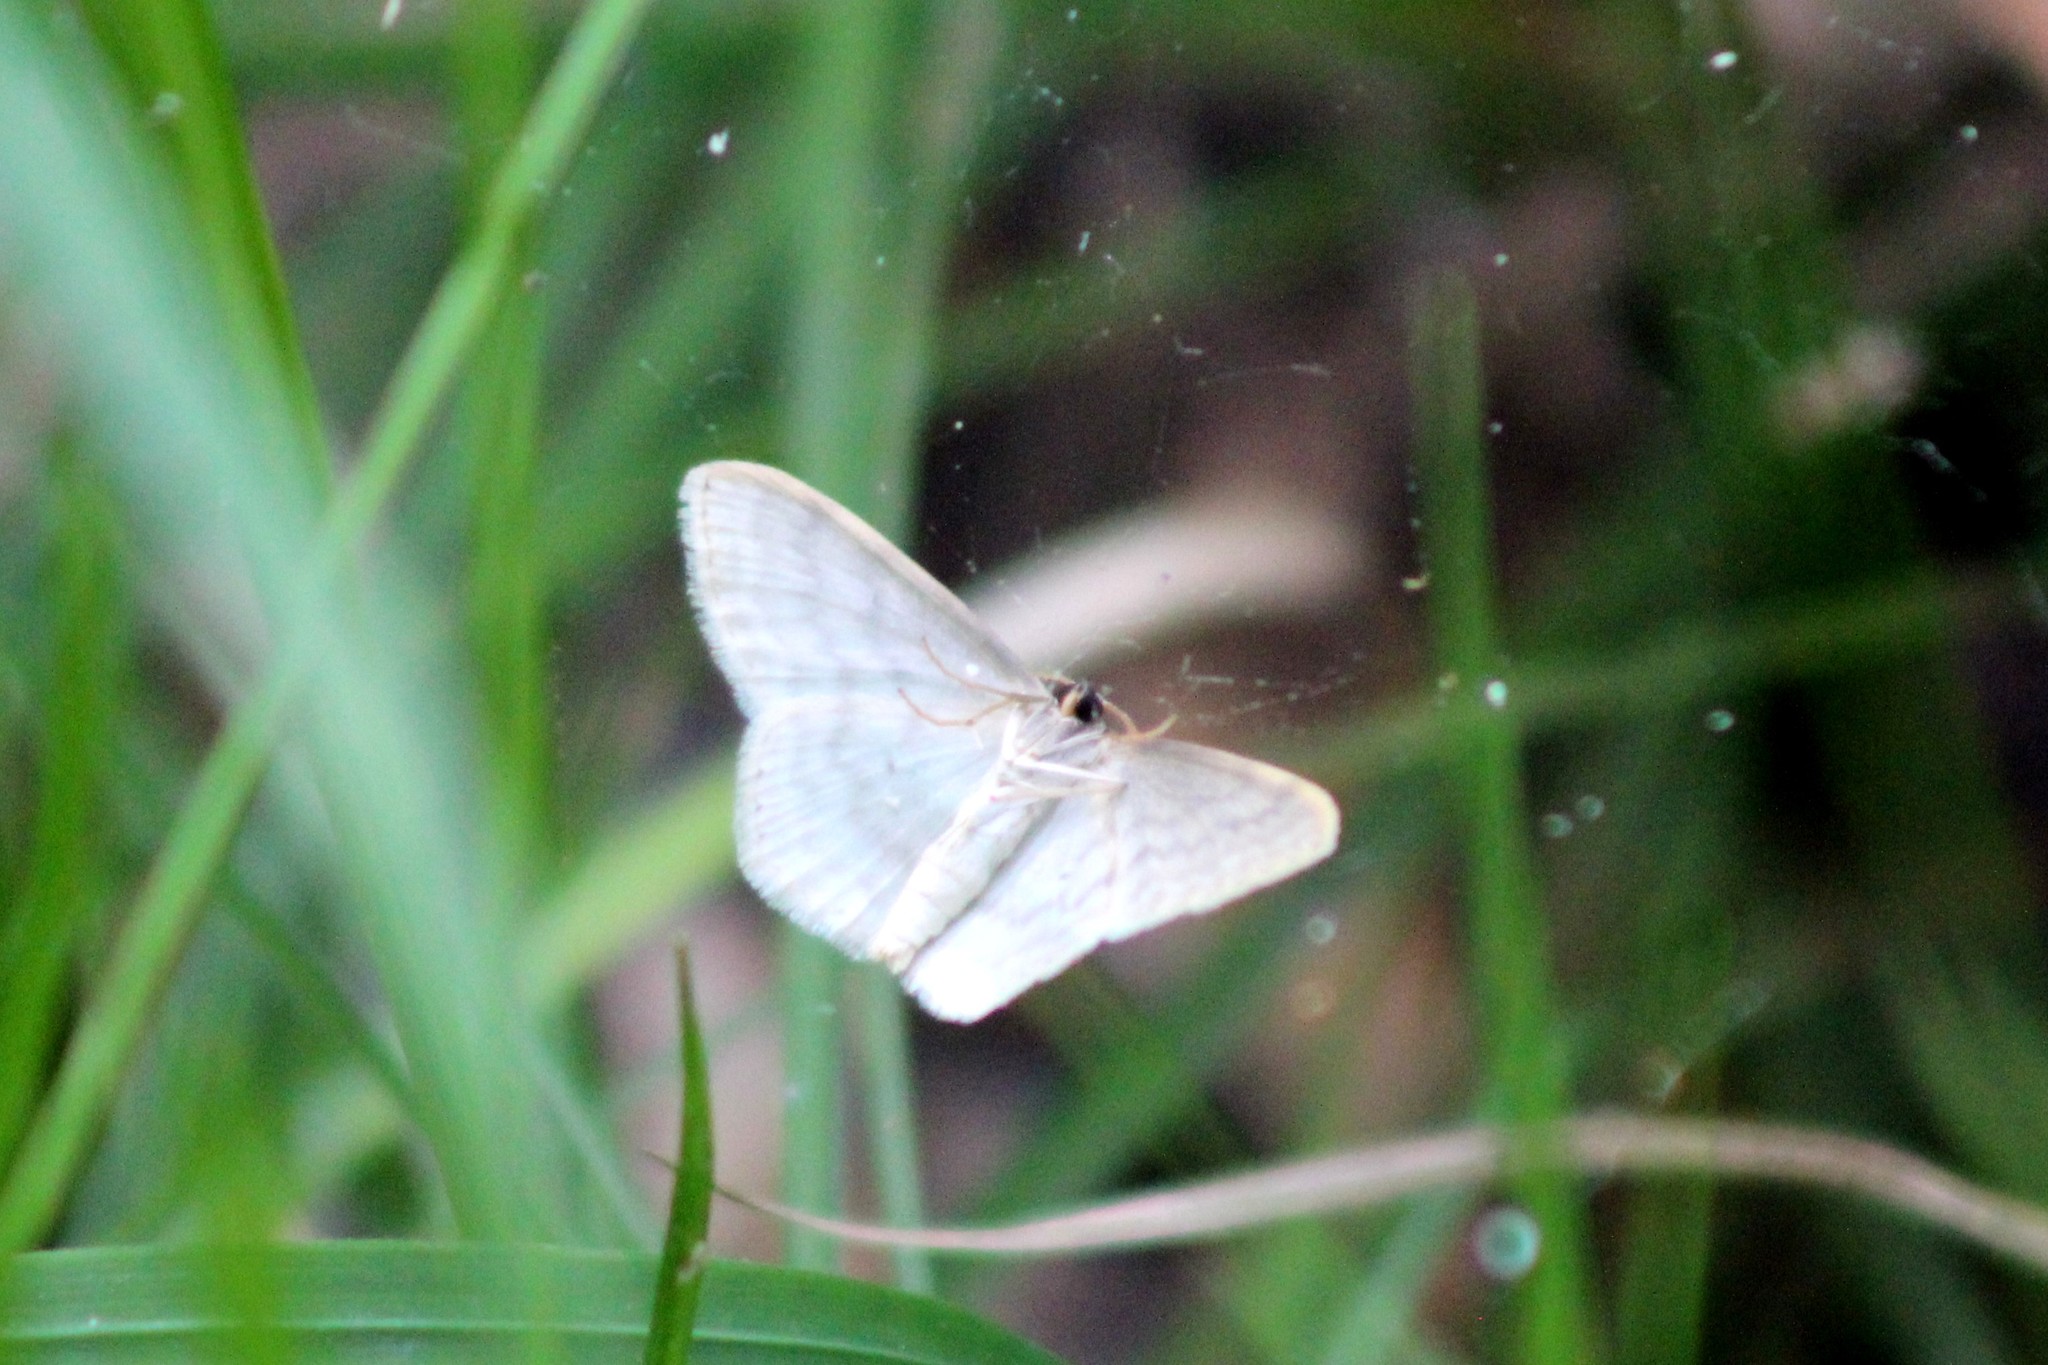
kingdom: Animalia
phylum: Arthropoda
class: Insecta
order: Lepidoptera
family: Geometridae
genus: Scopula
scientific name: Scopula floslactata
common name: Cream wave
